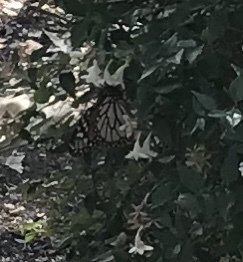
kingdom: Animalia
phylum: Arthropoda
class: Insecta
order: Lepidoptera
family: Nymphalidae
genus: Danaus
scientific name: Danaus plexippus
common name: Monarch
